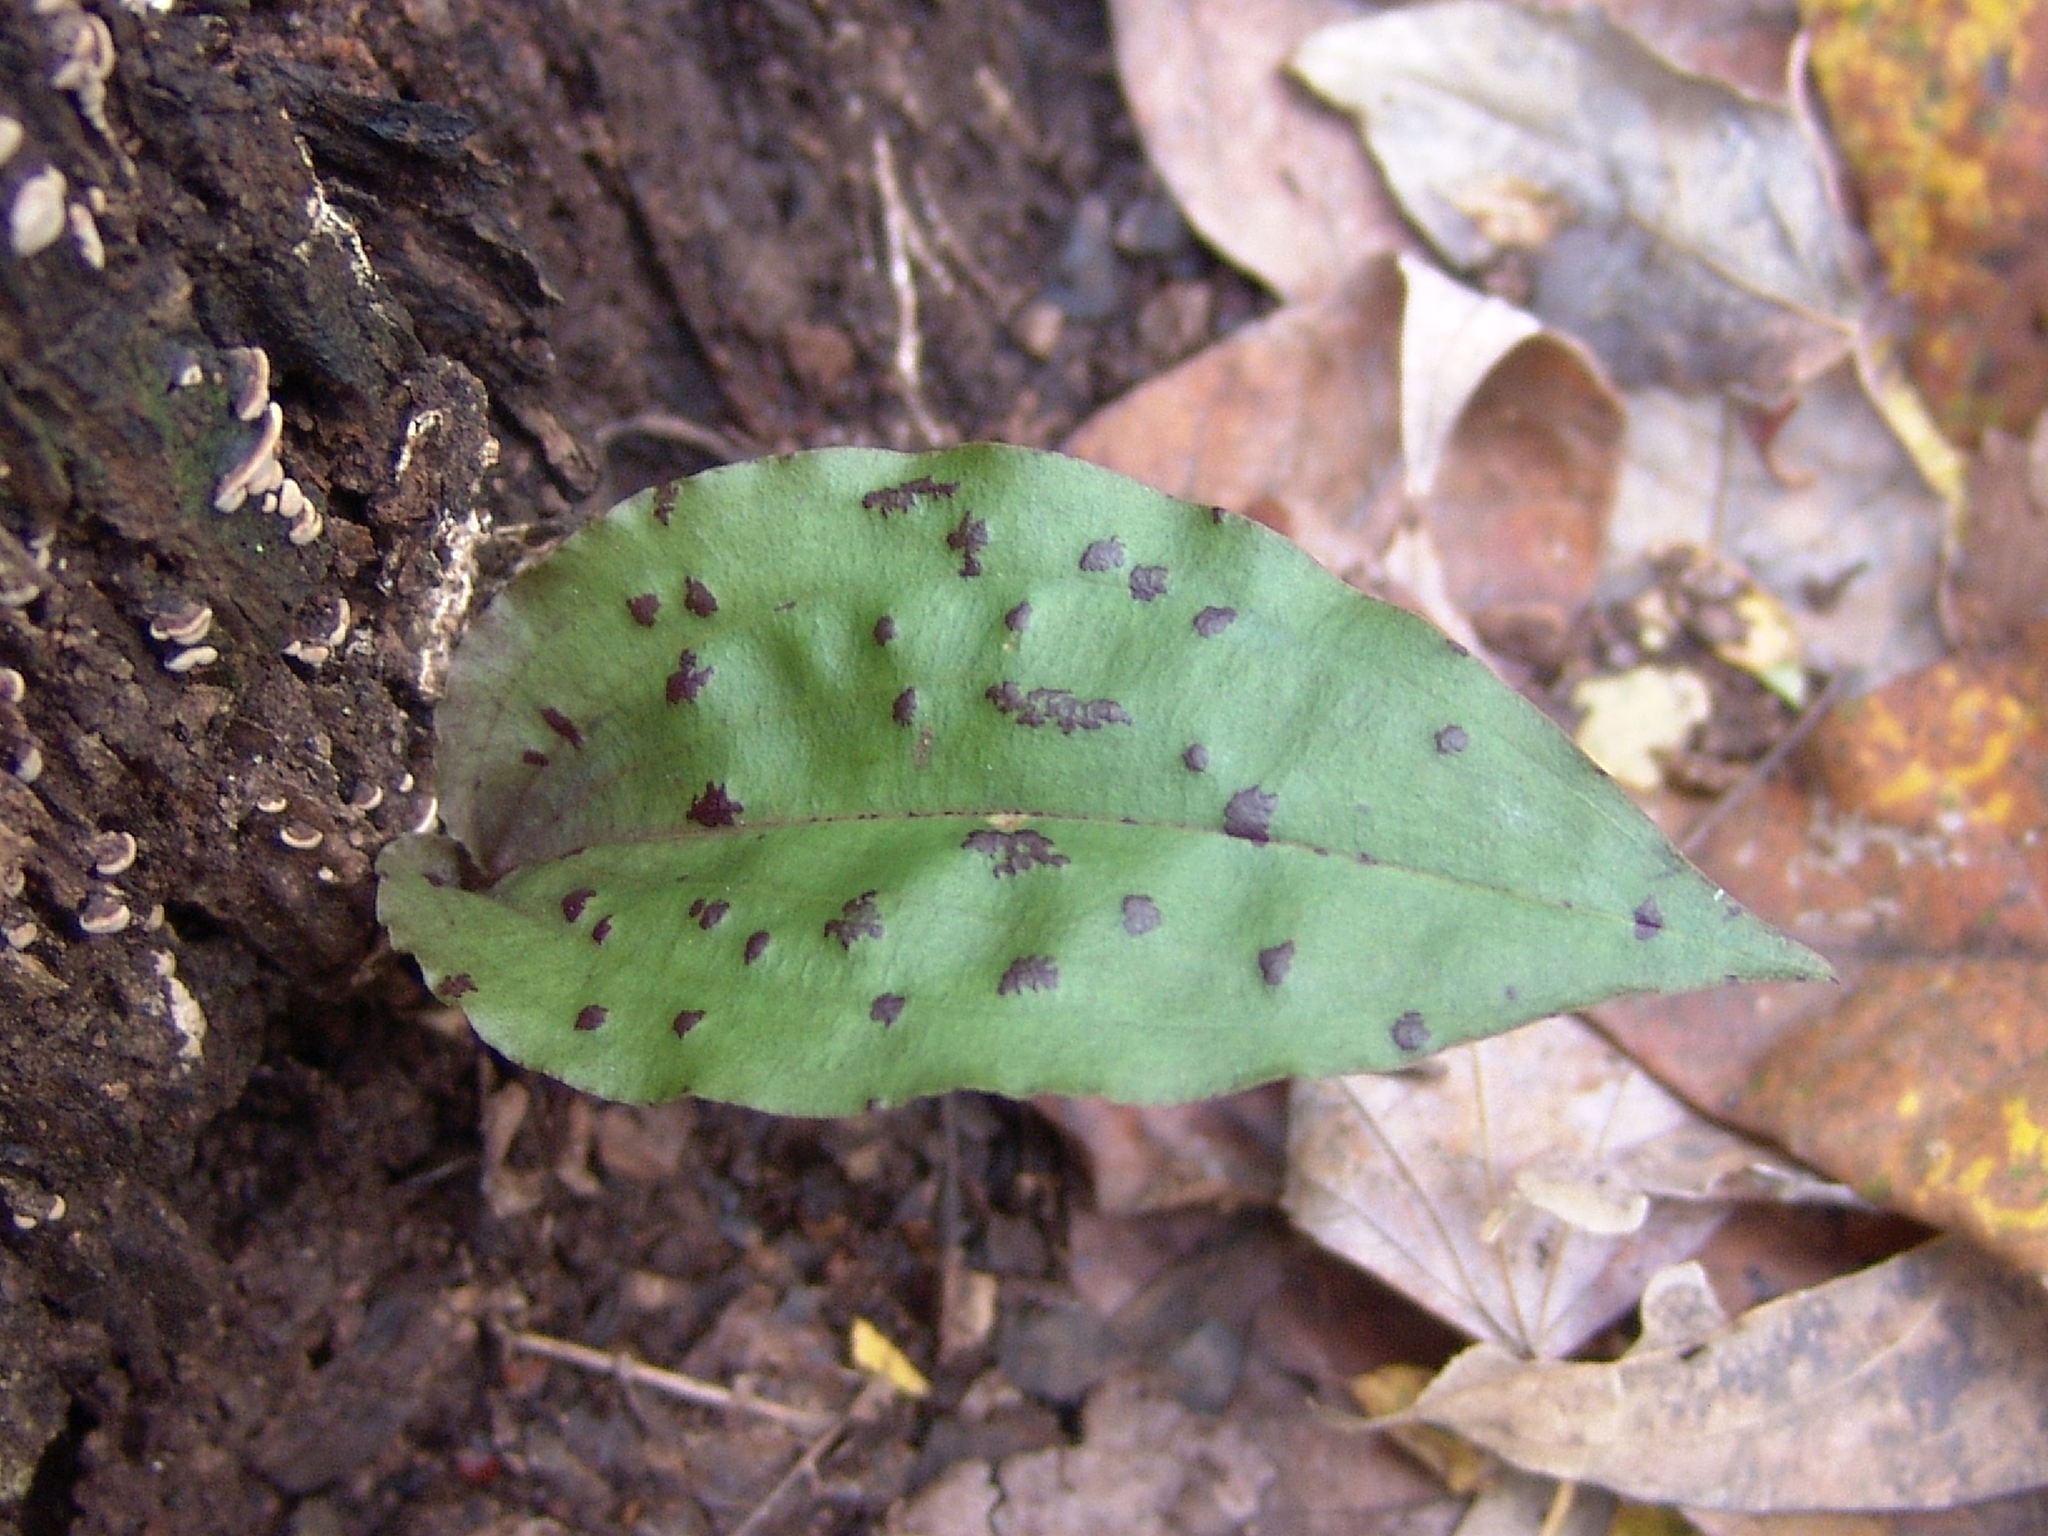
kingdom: Plantae
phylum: Tracheophyta
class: Liliopsida
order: Asparagales
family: Orchidaceae
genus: Tipularia
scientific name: Tipularia discolor
